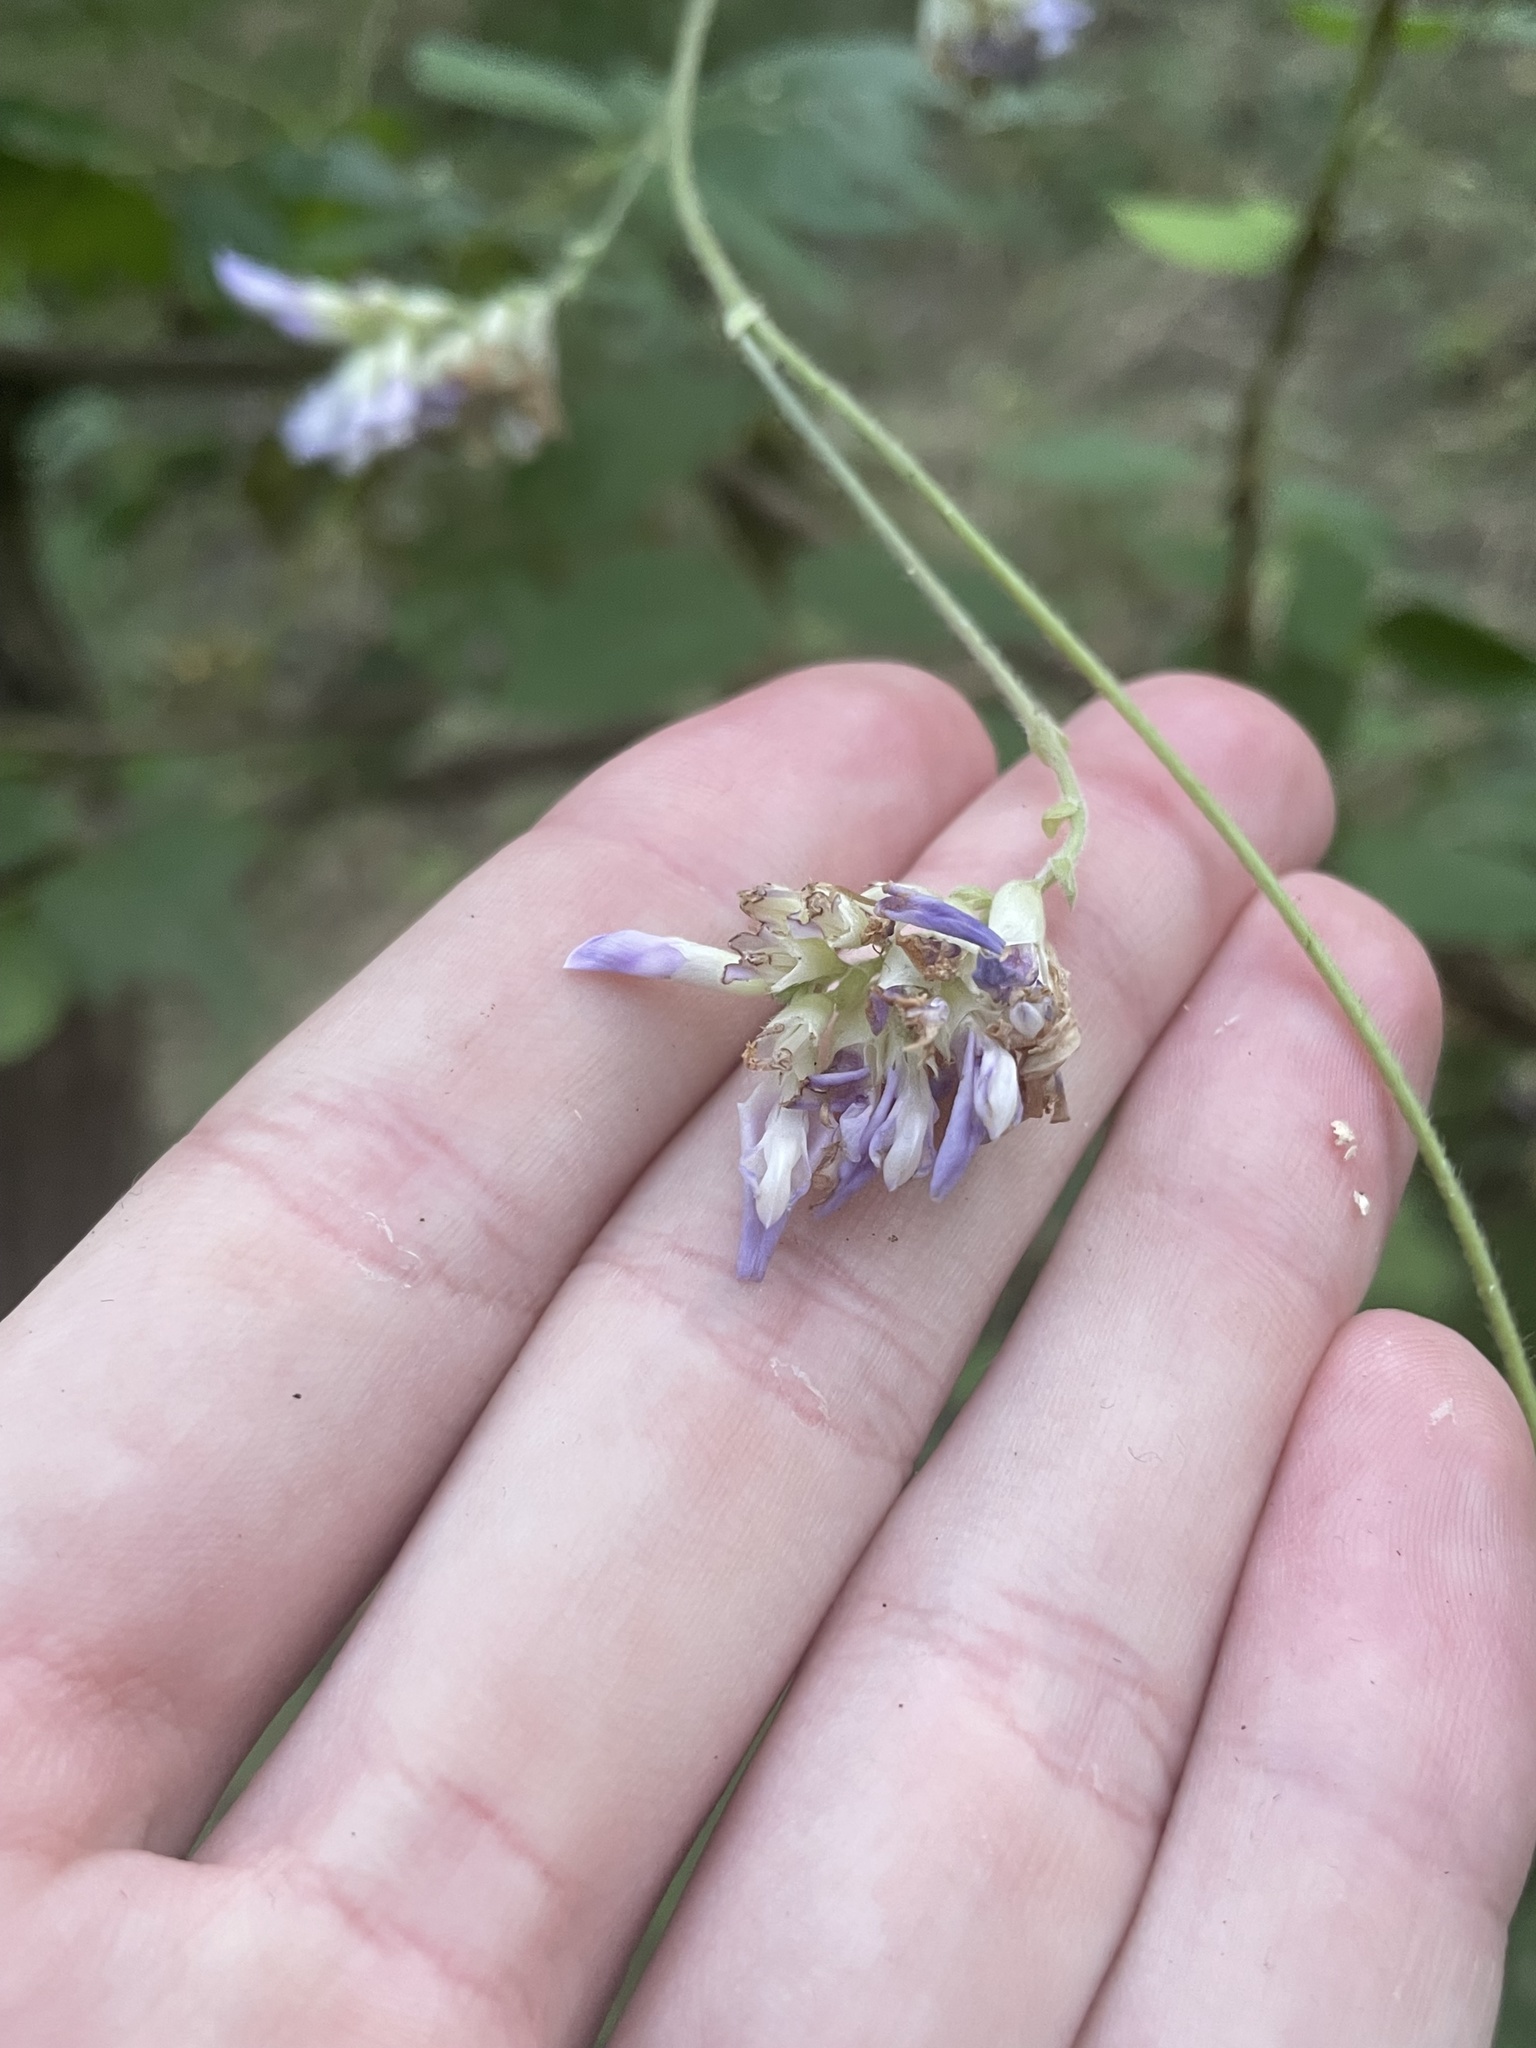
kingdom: Plantae
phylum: Tracheophyta
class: Magnoliopsida
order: Fabales
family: Fabaceae
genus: Amphicarpaea
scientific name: Amphicarpaea bracteata
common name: American hog peanut
